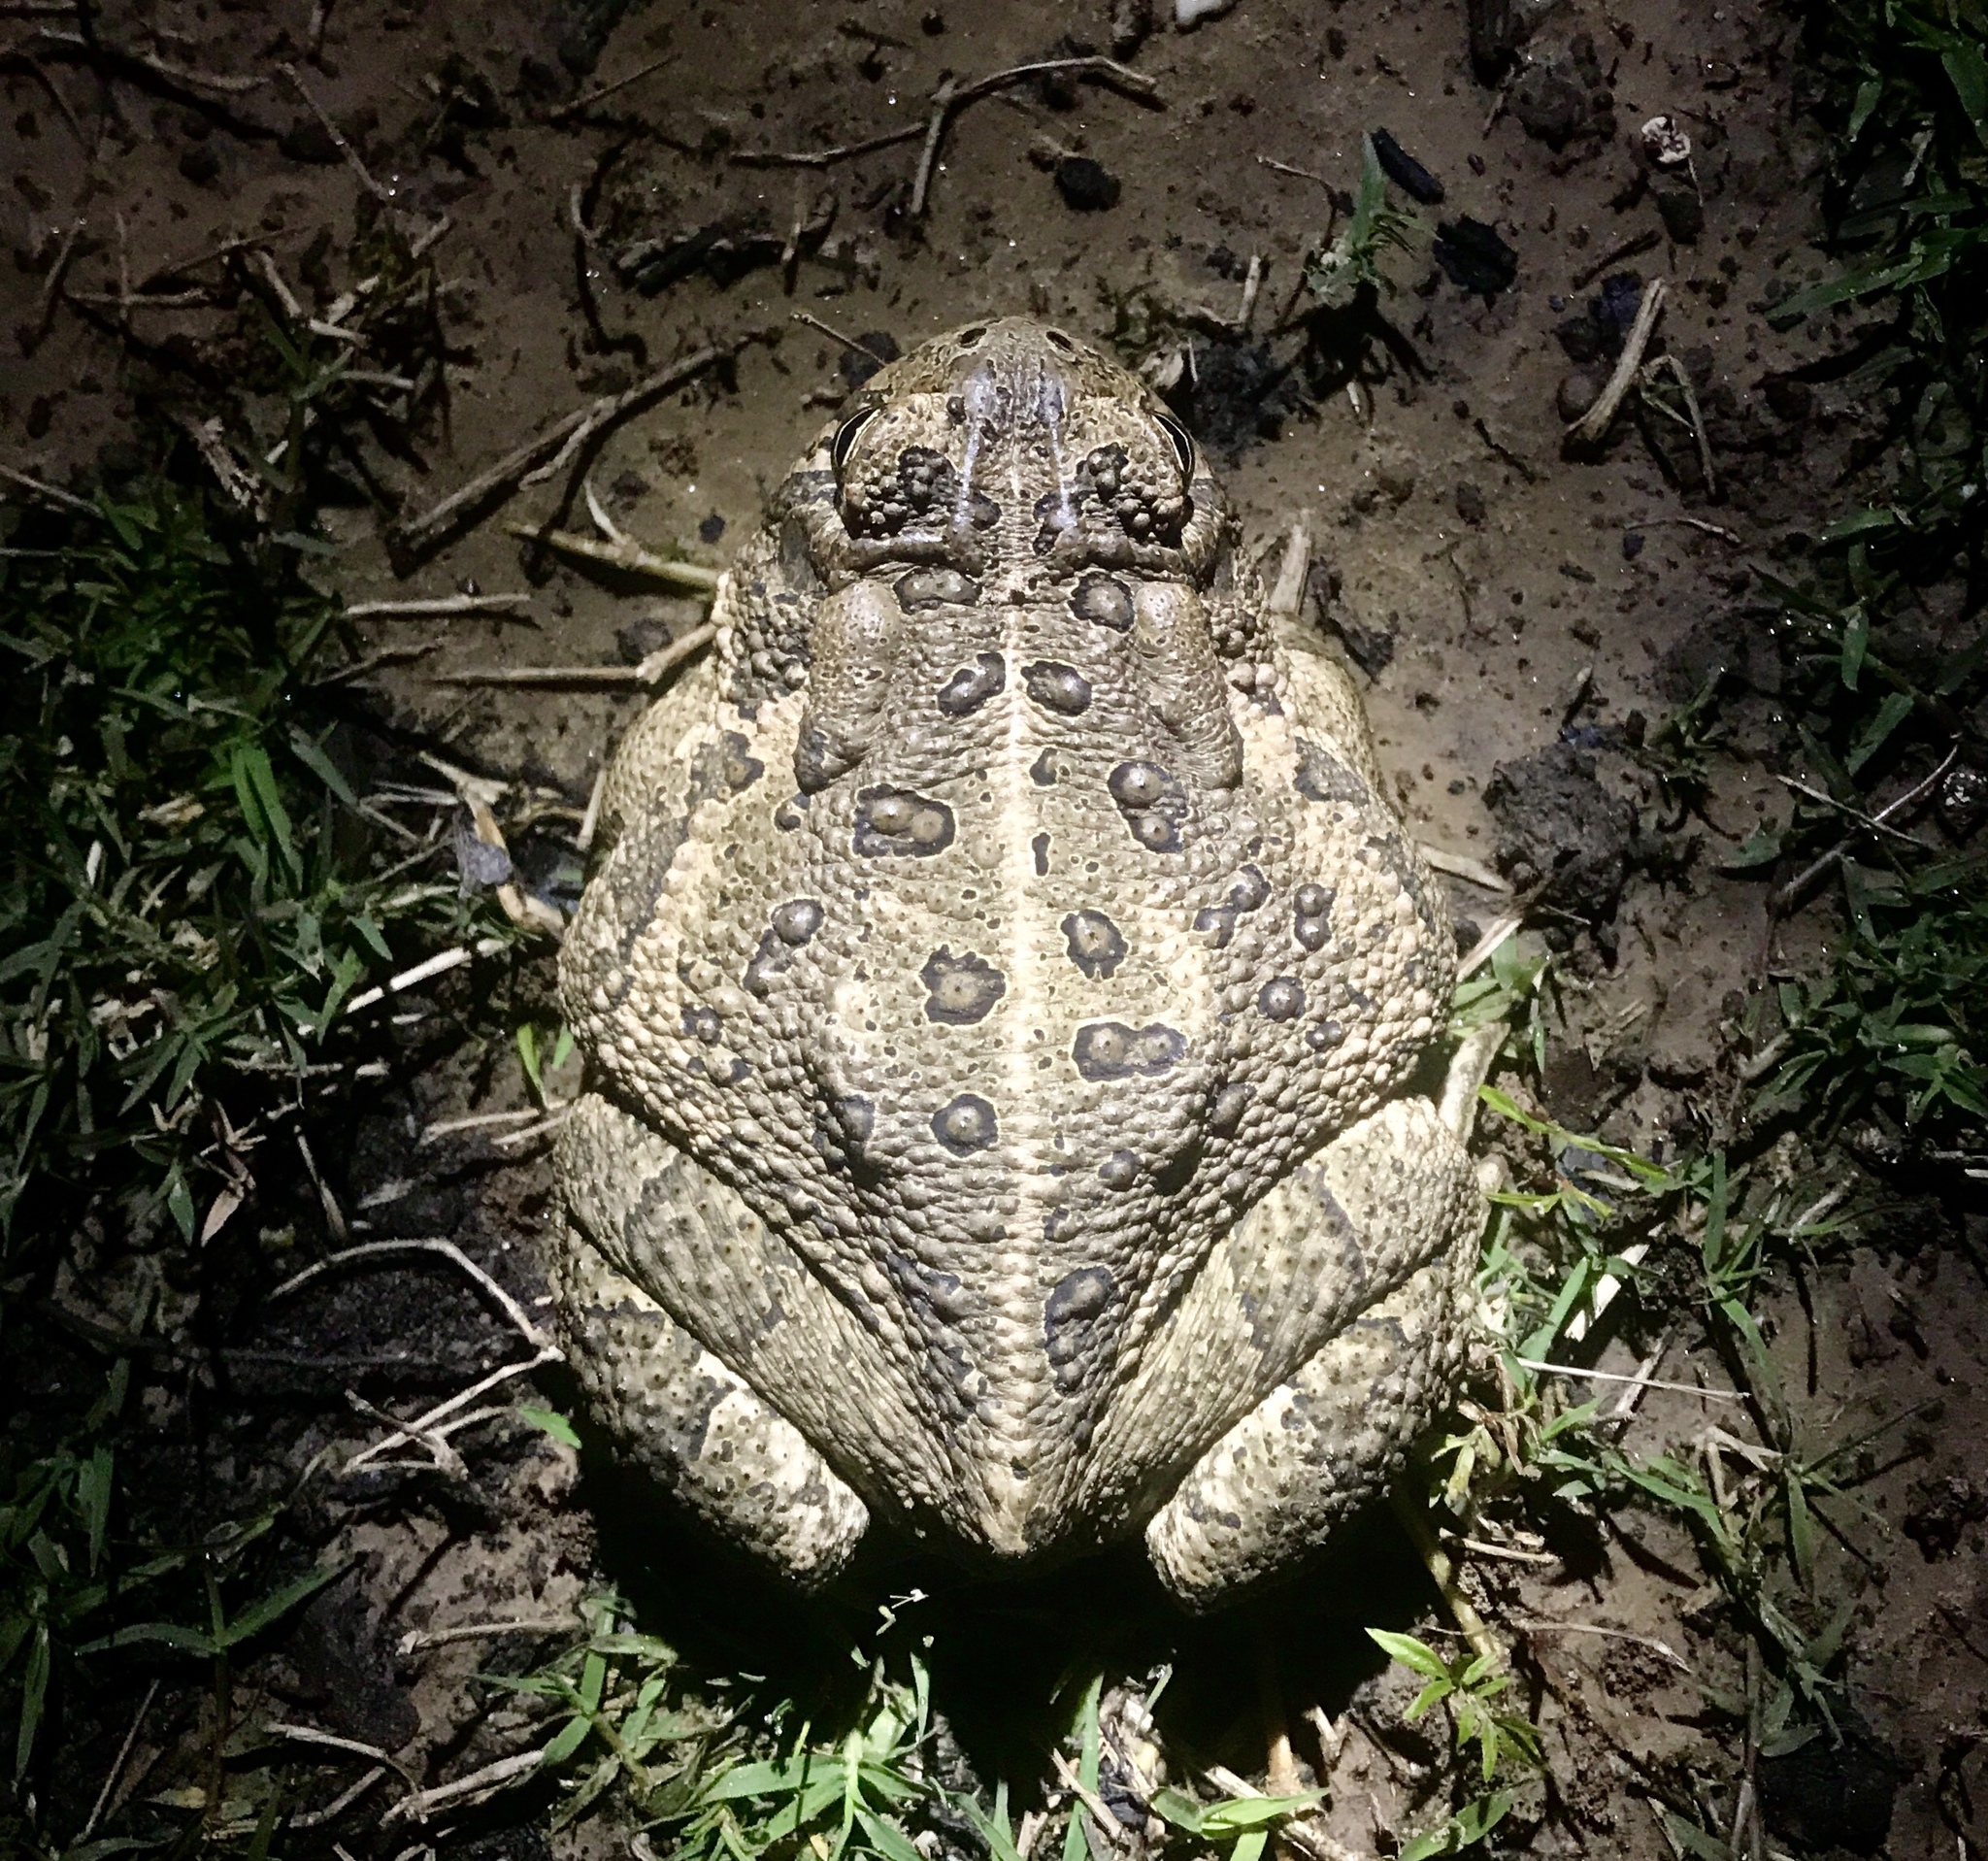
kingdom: Animalia
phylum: Chordata
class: Amphibia
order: Anura
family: Bufonidae
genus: Anaxyrus
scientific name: Anaxyrus americanus
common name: American toad
